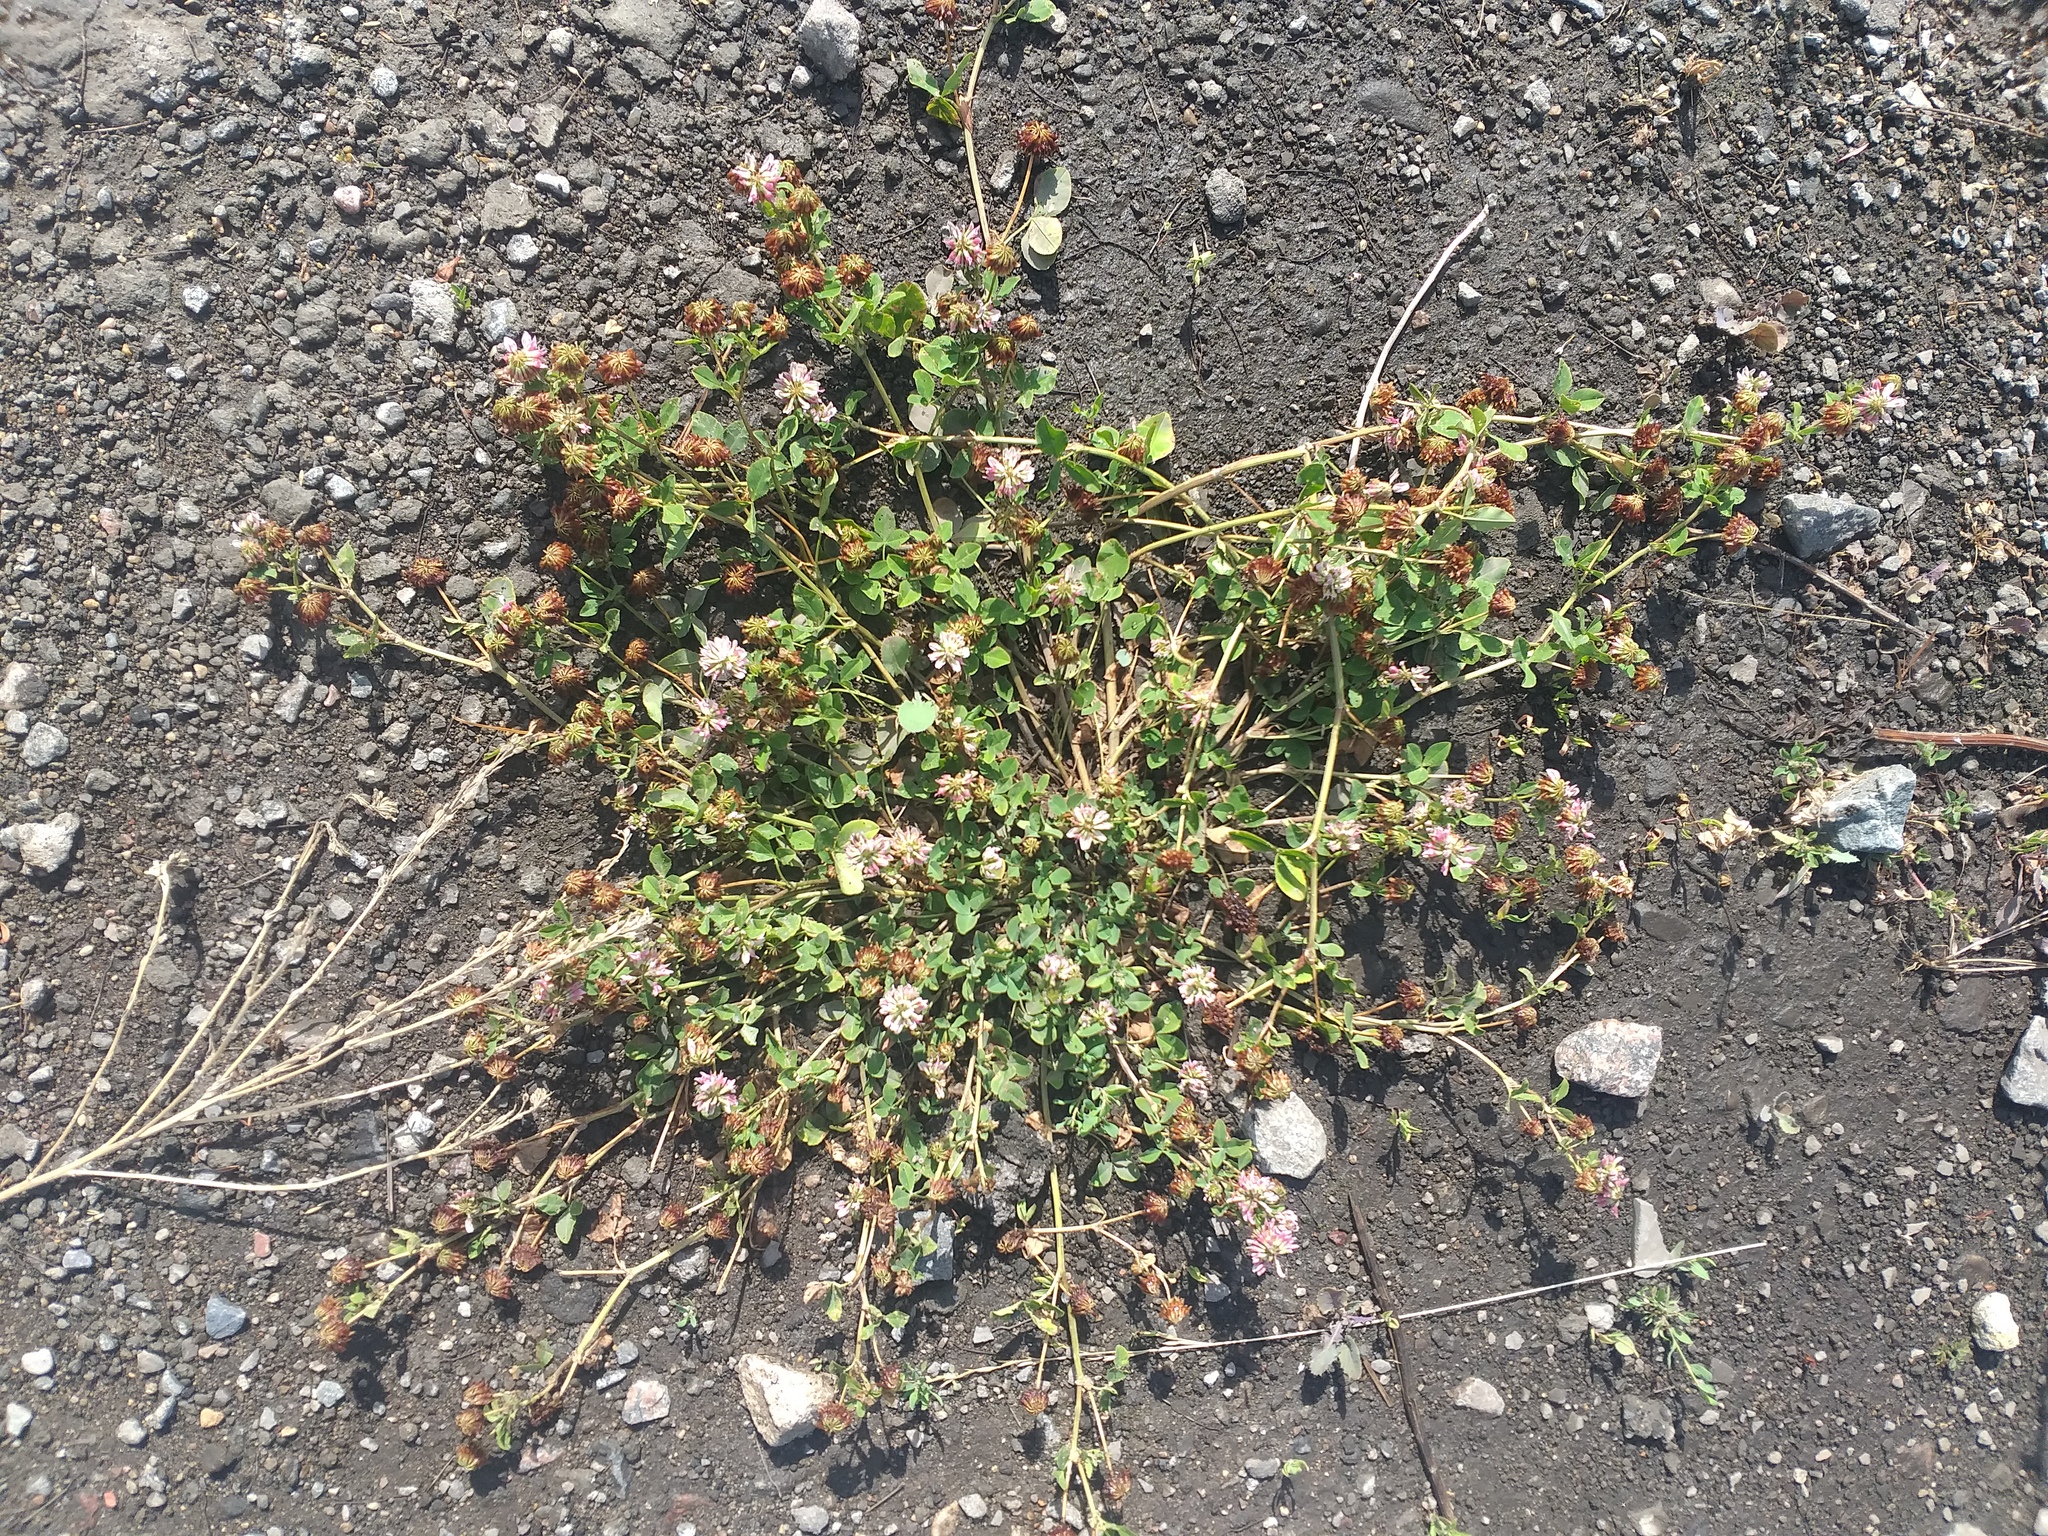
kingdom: Plantae
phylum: Tracheophyta
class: Magnoliopsida
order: Fabales
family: Fabaceae
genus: Trifolium
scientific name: Trifolium hybridum
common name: Alsike clover
